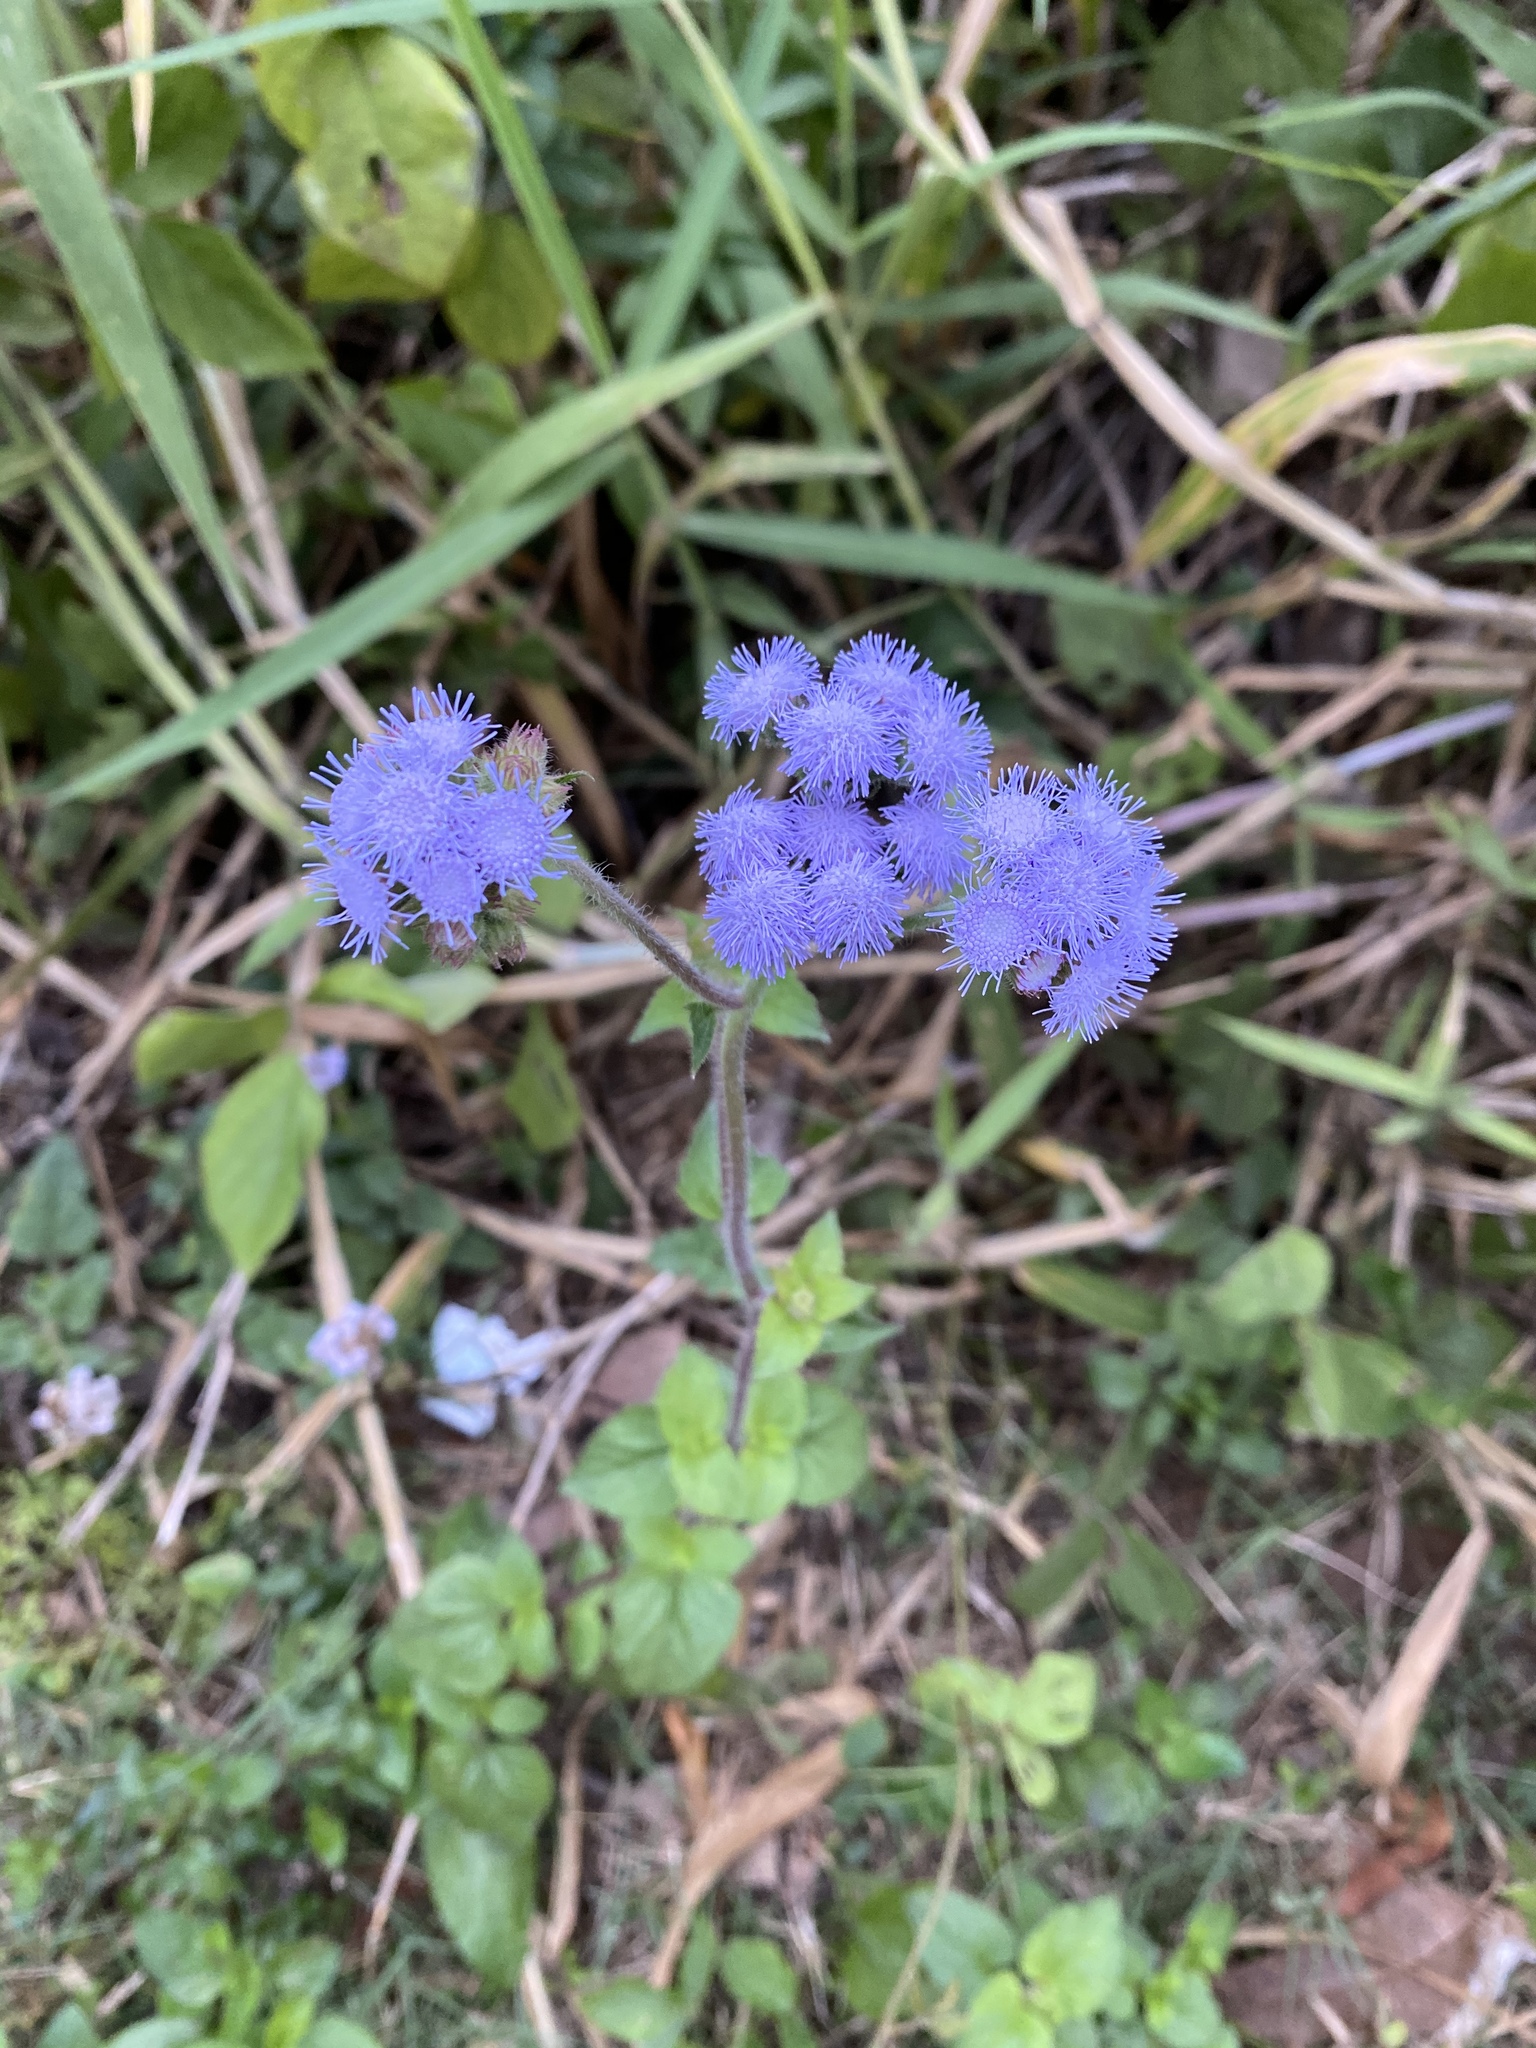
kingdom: Plantae
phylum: Tracheophyta
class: Magnoliopsida
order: Asterales
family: Asteraceae
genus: Ageratum
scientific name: Ageratum houstonianum
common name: Bluemink
